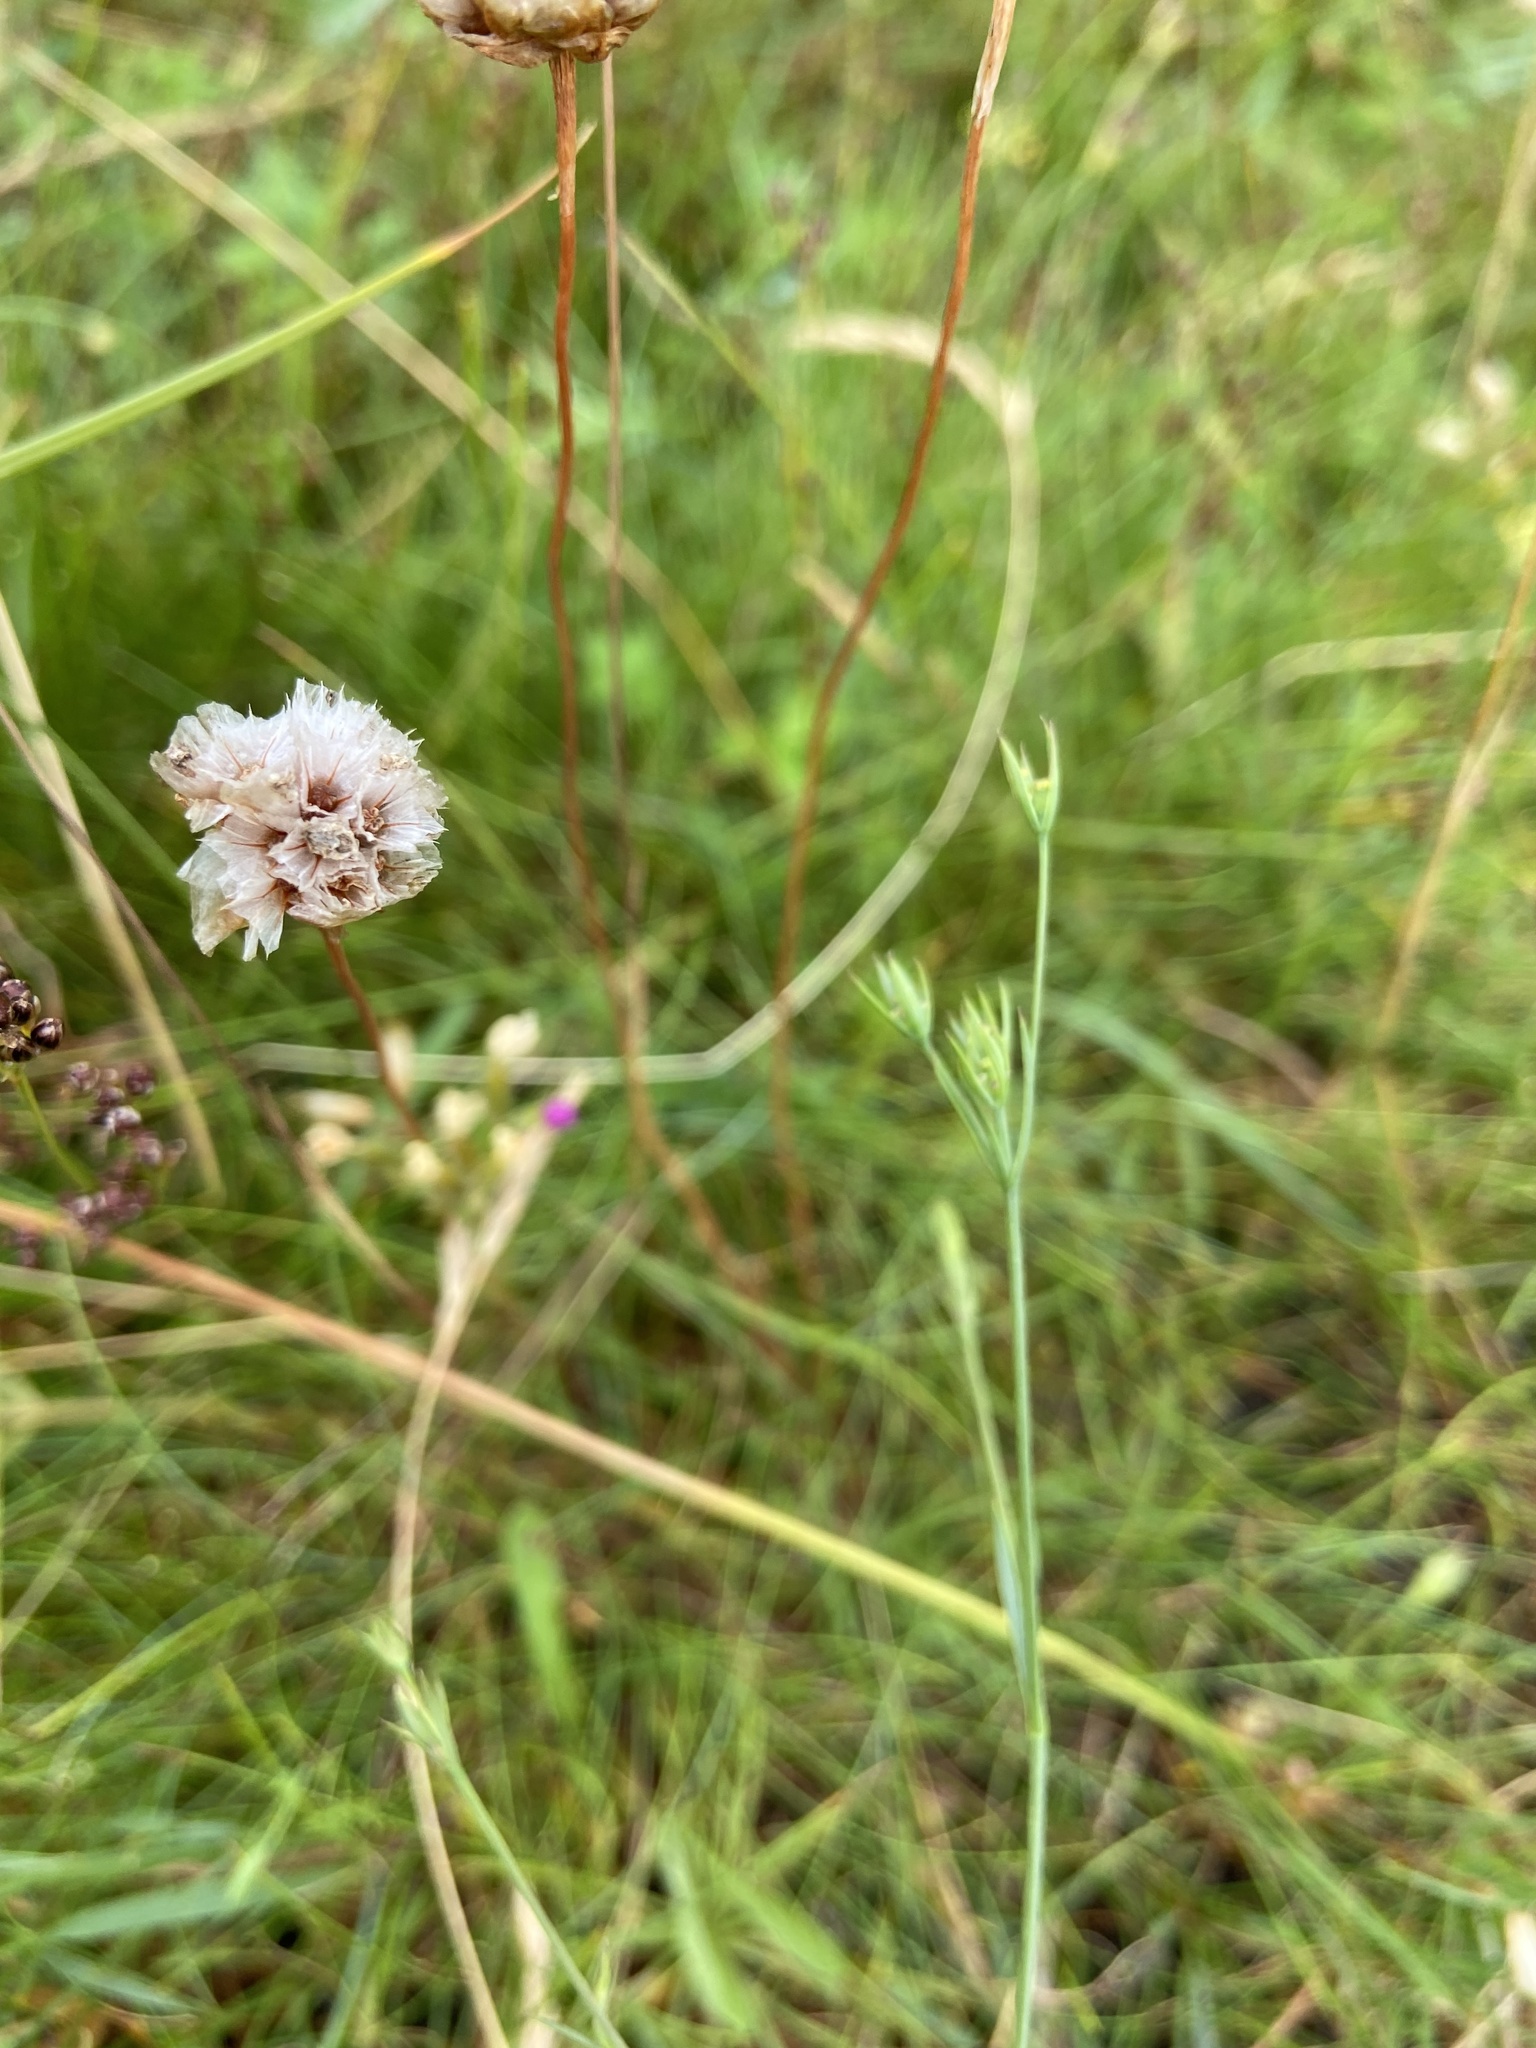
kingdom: Plantae
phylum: Tracheophyta
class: Magnoliopsida
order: Apiales
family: Apiaceae
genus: Bupleurum
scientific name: Bupleurum tenuissimum
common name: Slender hare's-ear
